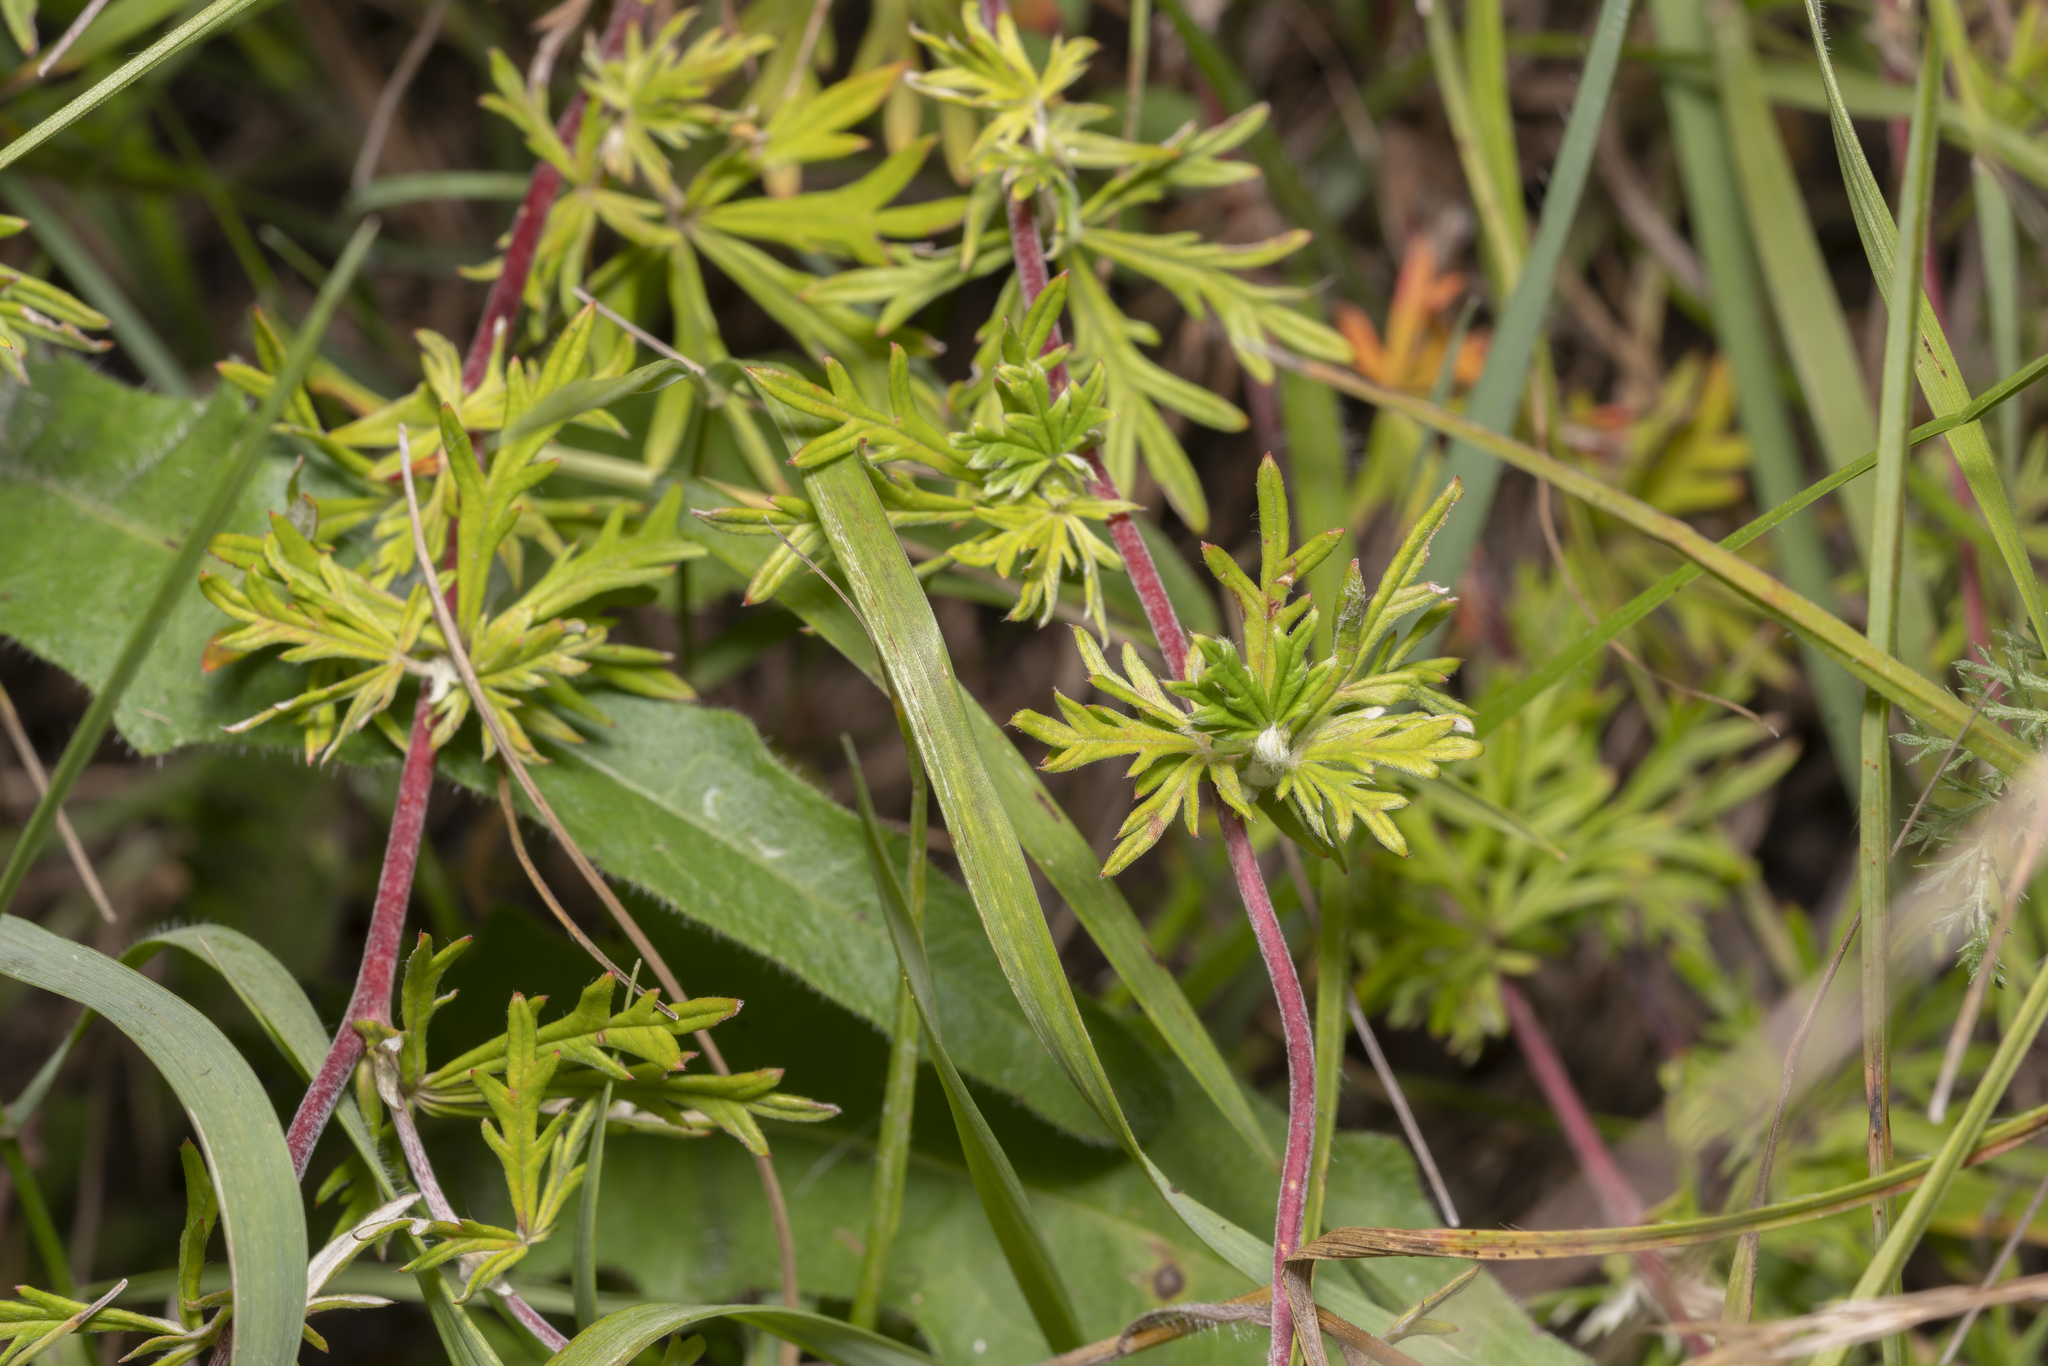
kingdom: Plantae
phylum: Tracheophyta
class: Magnoliopsida
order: Rosales
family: Rosaceae
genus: Potentilla
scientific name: Potentilla argentea
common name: Hoary cinquefoil
